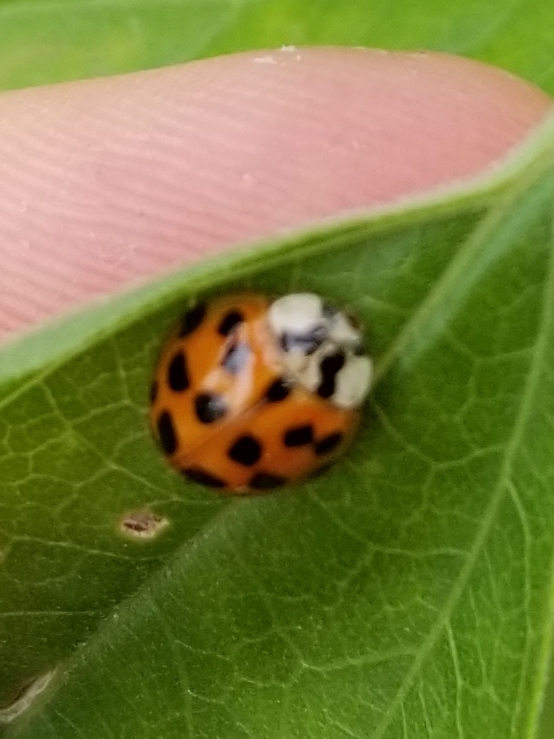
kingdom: Animalia
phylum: Arthropoda
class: Insecta
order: Coleoptera
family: Coccinellidae
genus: Harmonia
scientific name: Harmonia axyridis
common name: Harlequin ladybird
